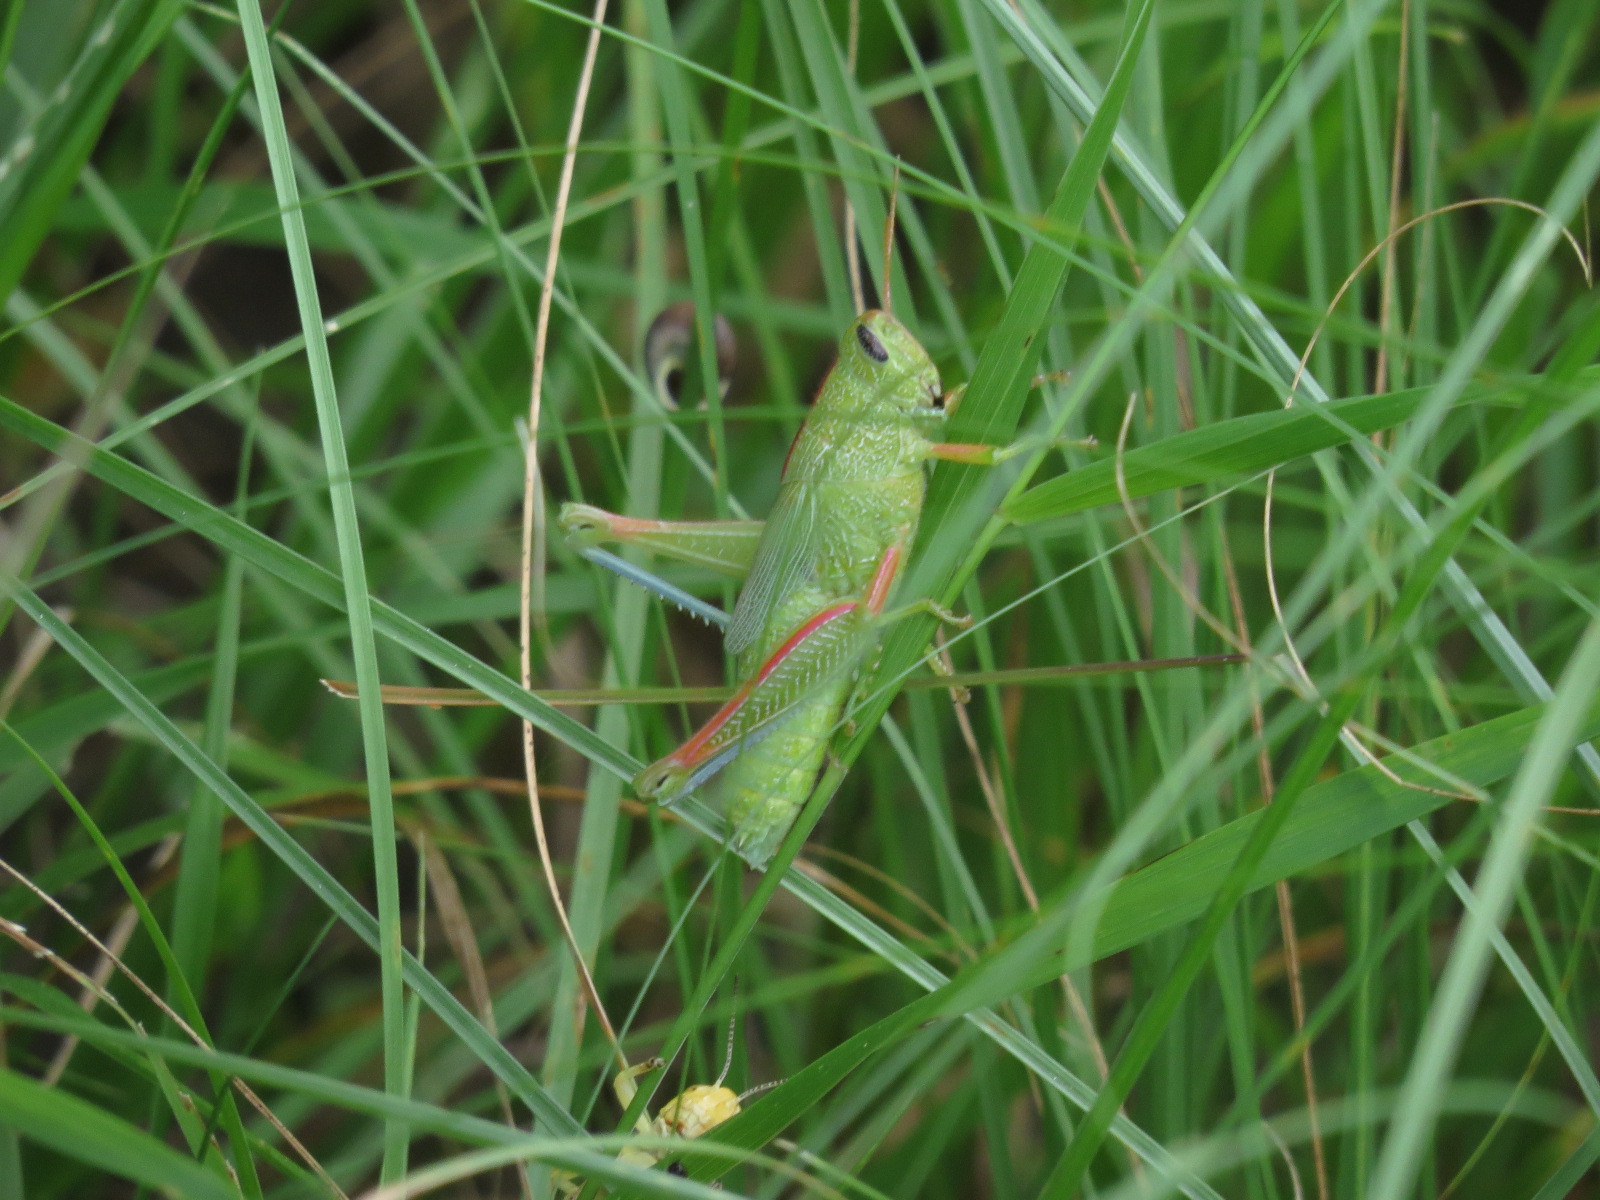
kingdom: Animalia
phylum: Arthropoda
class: Insecta
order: Orthoptera
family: Acrididae
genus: Hesperotettix
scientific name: Hesperotettix speciosus
